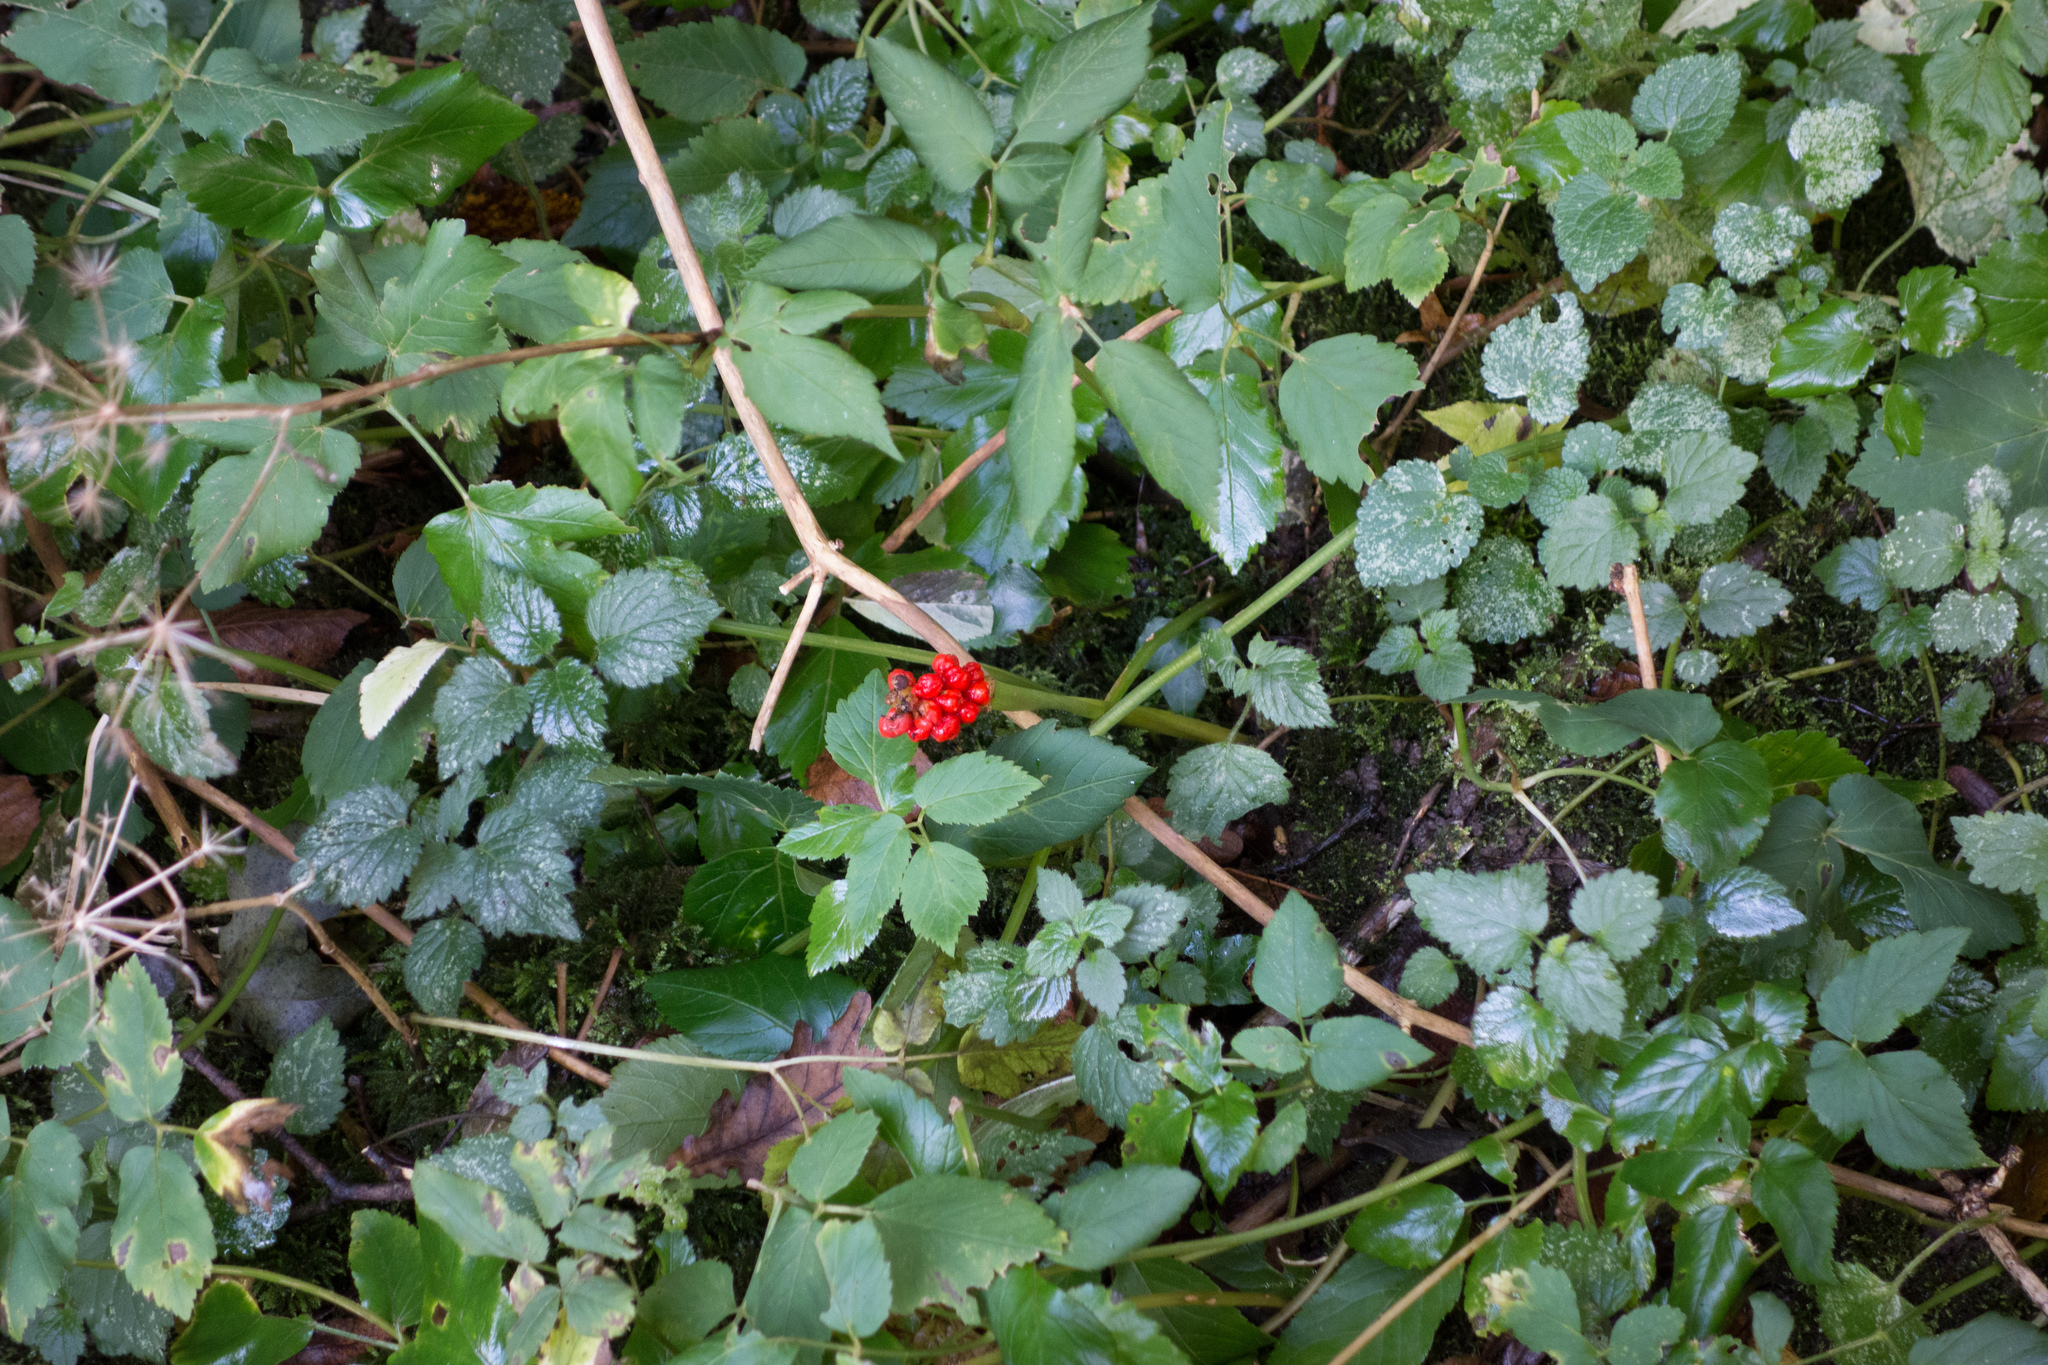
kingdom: Plantae
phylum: Tracheophyta
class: Liliopsida
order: Alismatales
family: Araceae
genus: Arum
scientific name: Arum maculatum
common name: Lords-and-ladies
